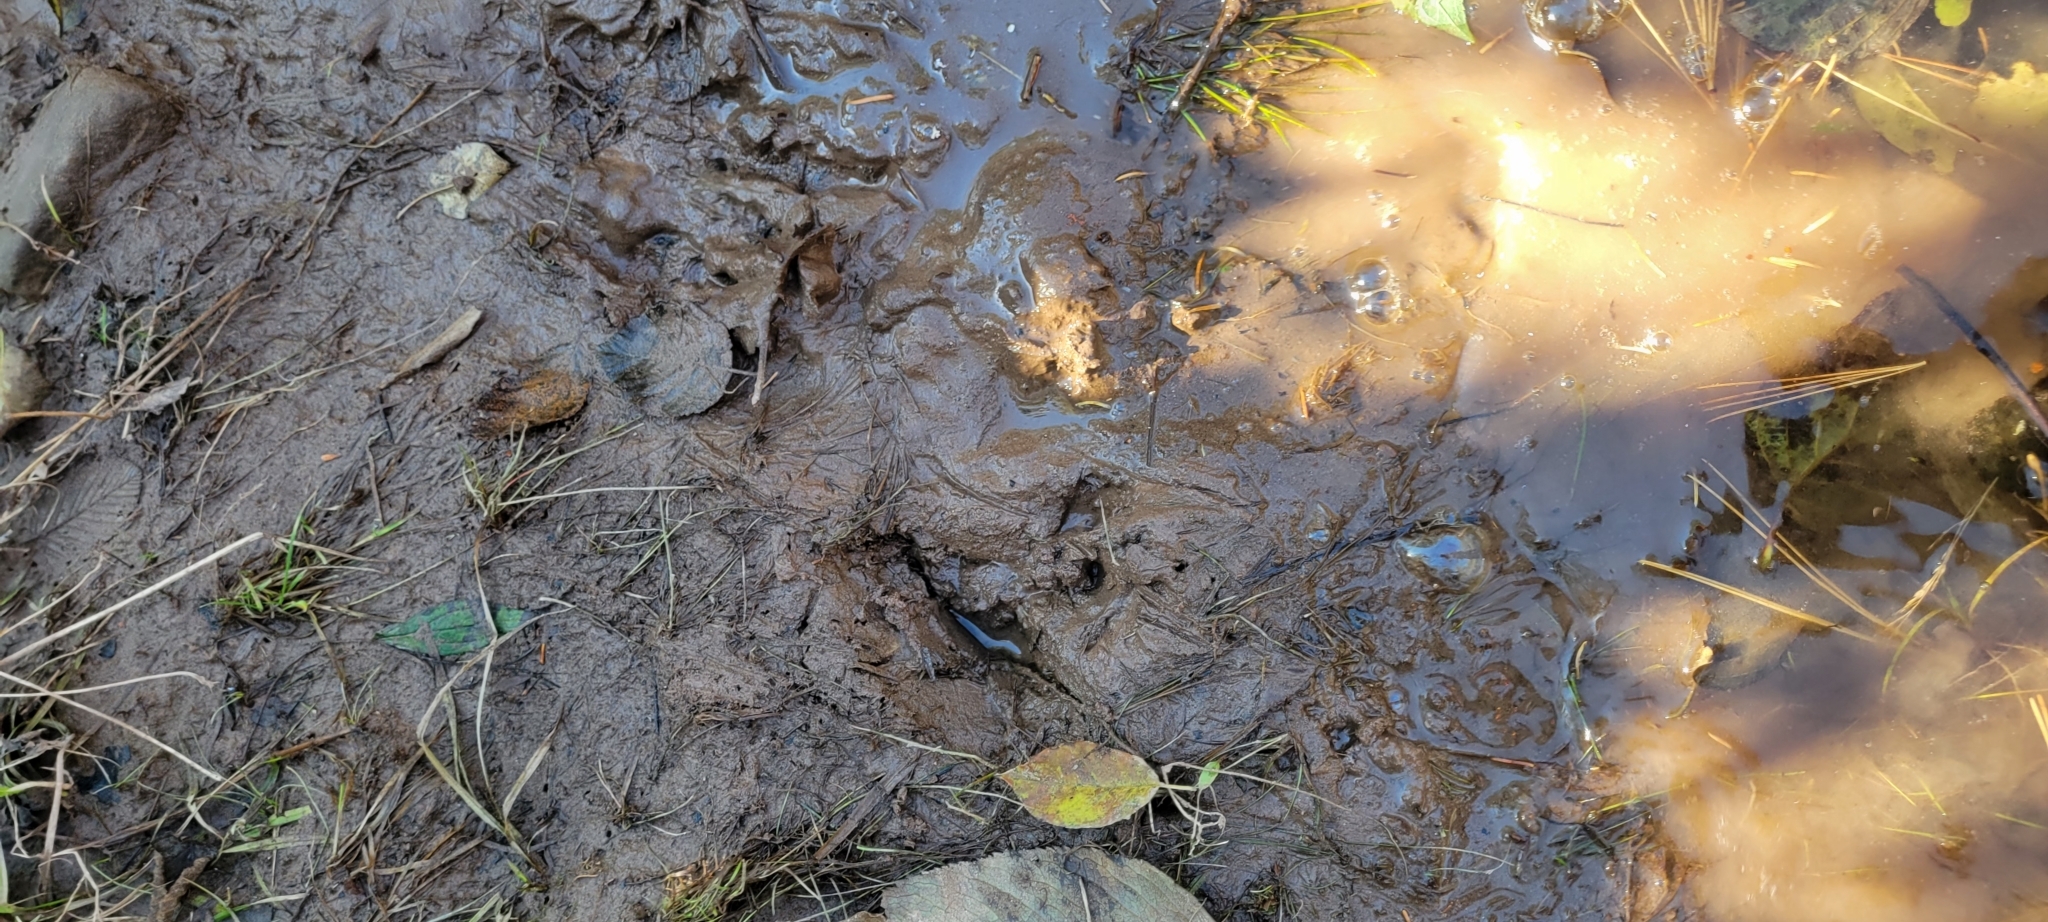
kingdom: Animalia
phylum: Chordata
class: Mammalia
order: Rodentia
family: Castoridae
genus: Castor
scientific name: Castor canadensis
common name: American beaver
